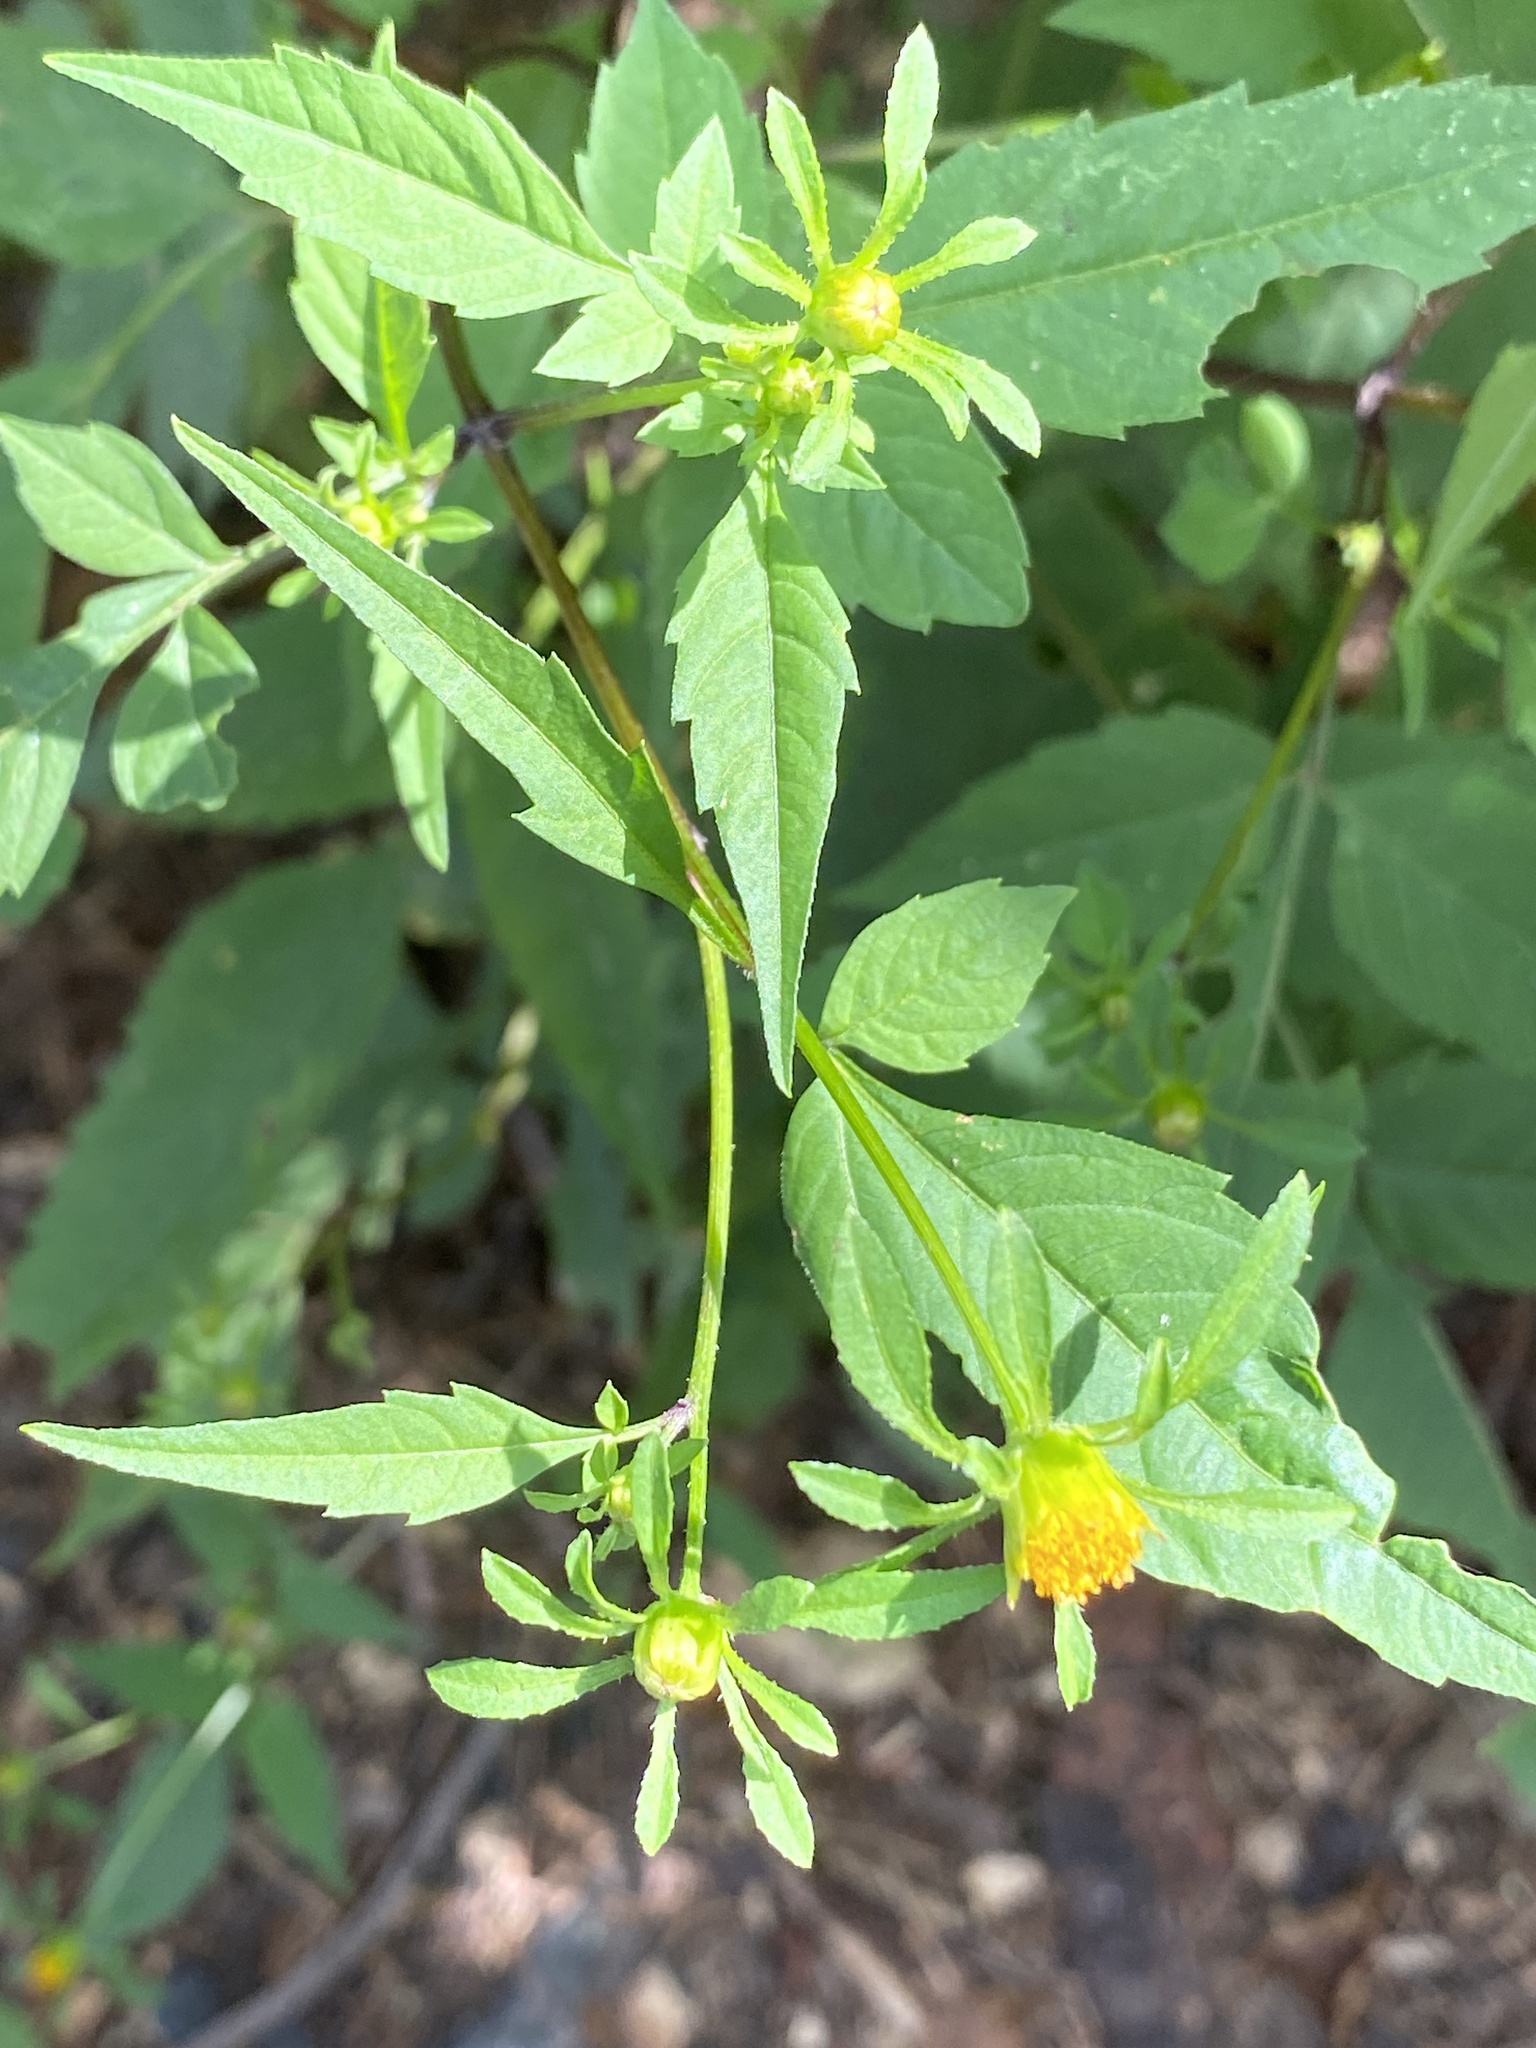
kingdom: Plantae
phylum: Tracheophyta
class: Magnoliopsida
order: Asterales
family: Asteraceae
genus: Bidens
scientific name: Bidens frondosa
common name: Beggarticks
